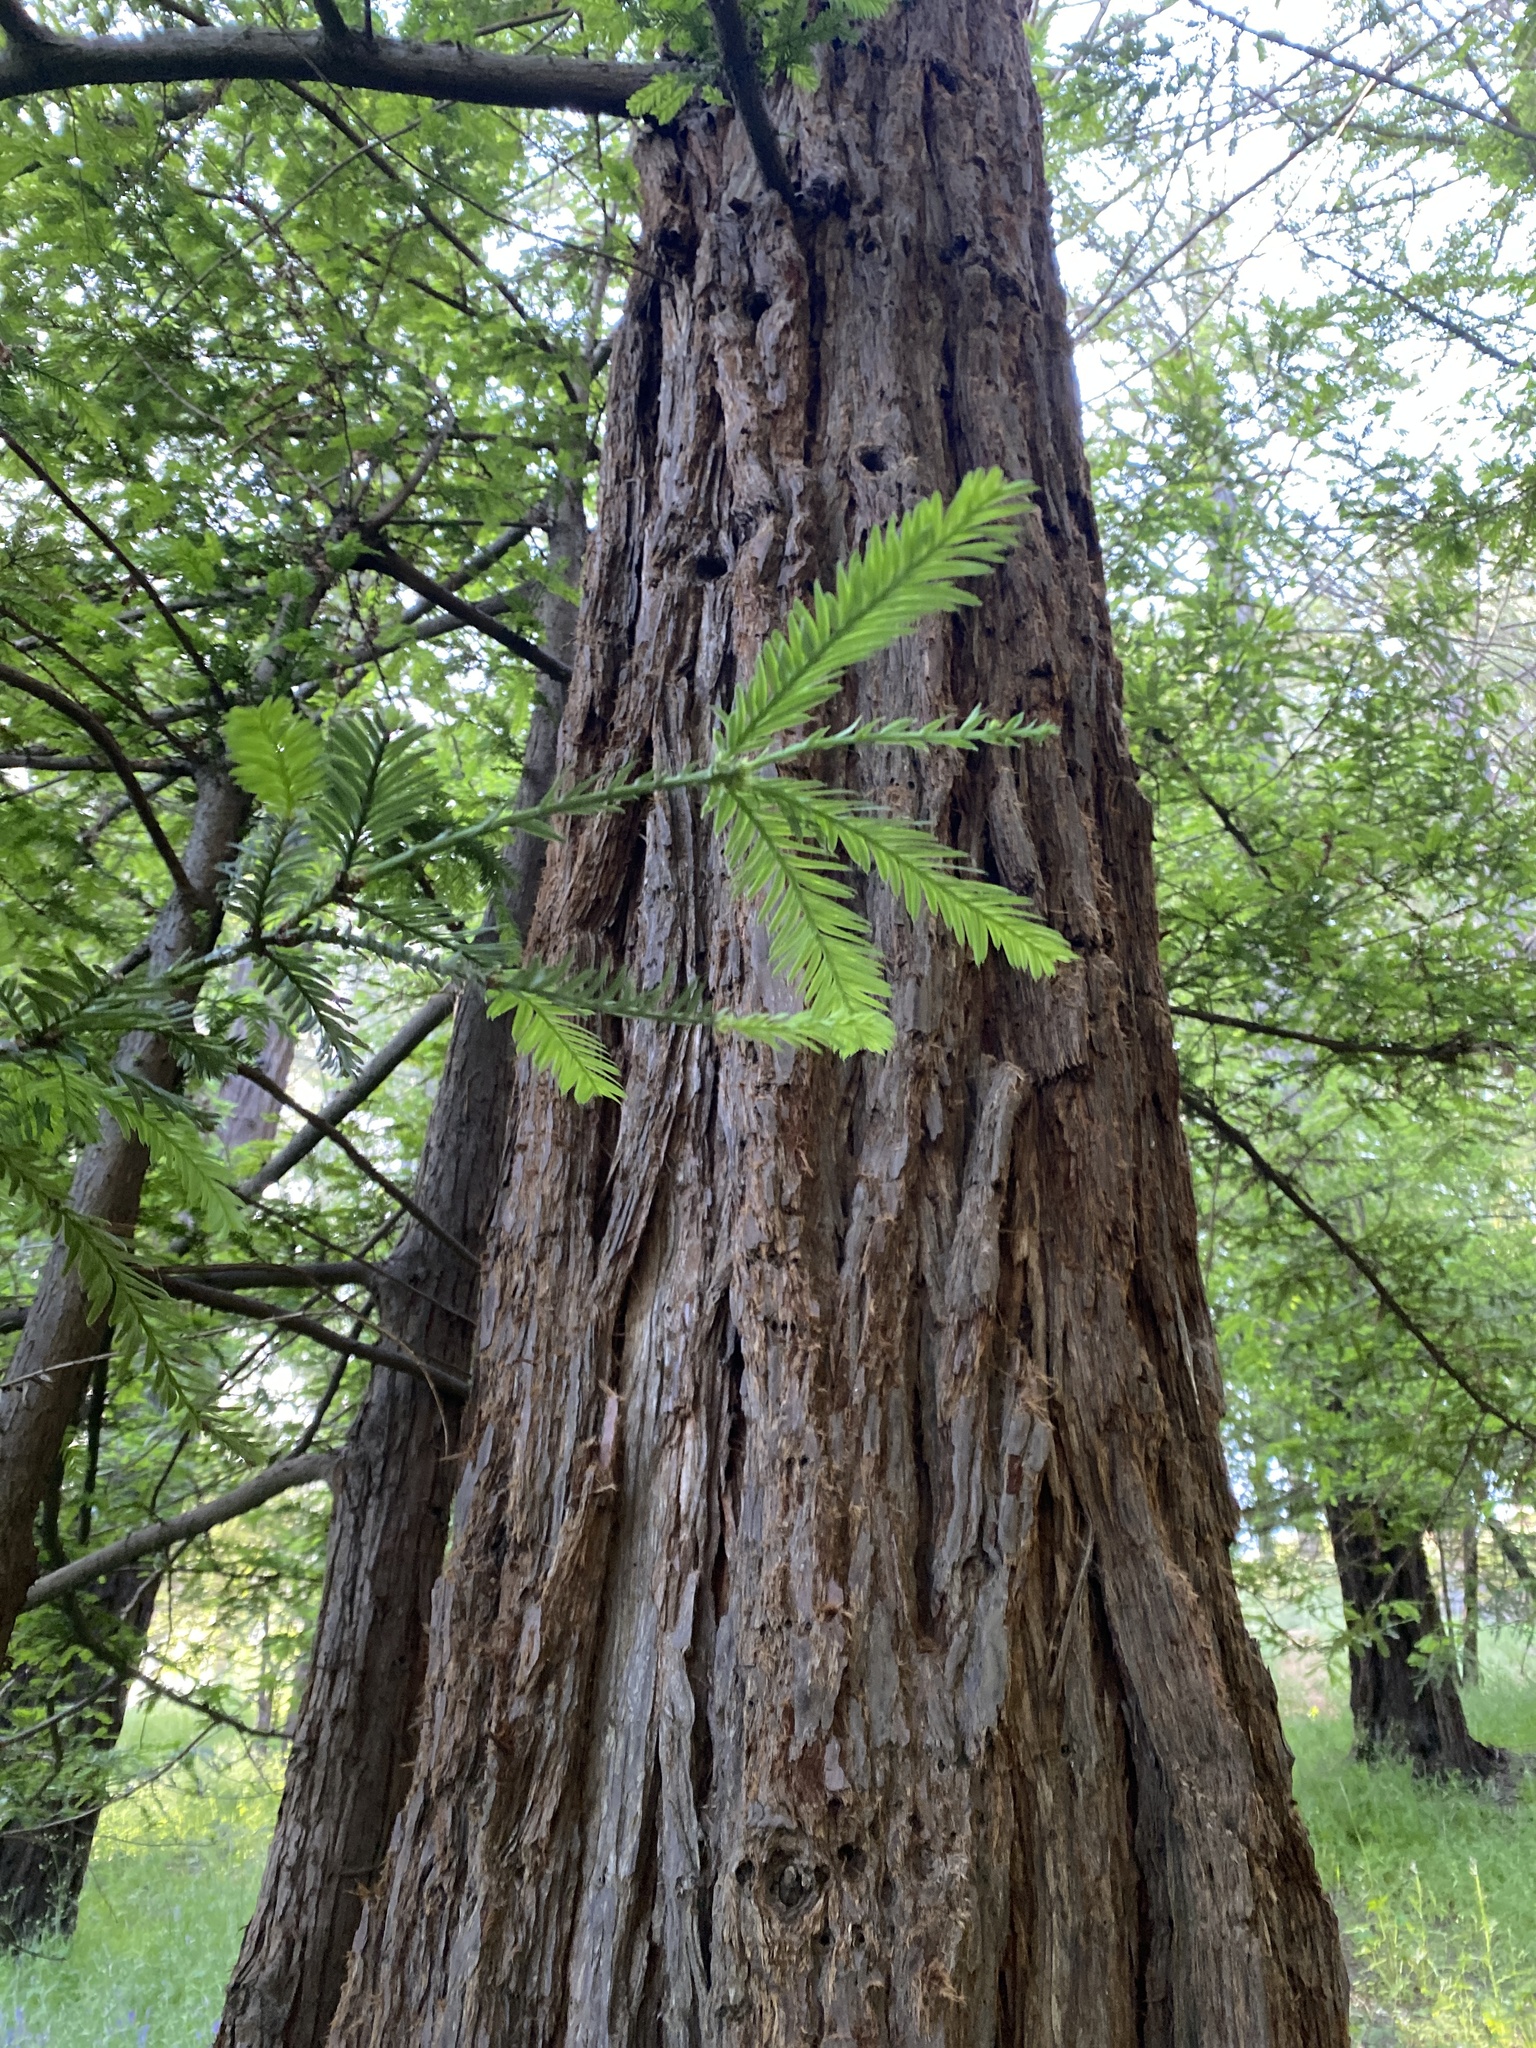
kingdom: Plantae
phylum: Tracheophyta
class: Pinopsida
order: Pinales
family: Cupressaceae
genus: Sequoia
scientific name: Sequoia sempervirens
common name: Coast redwood
